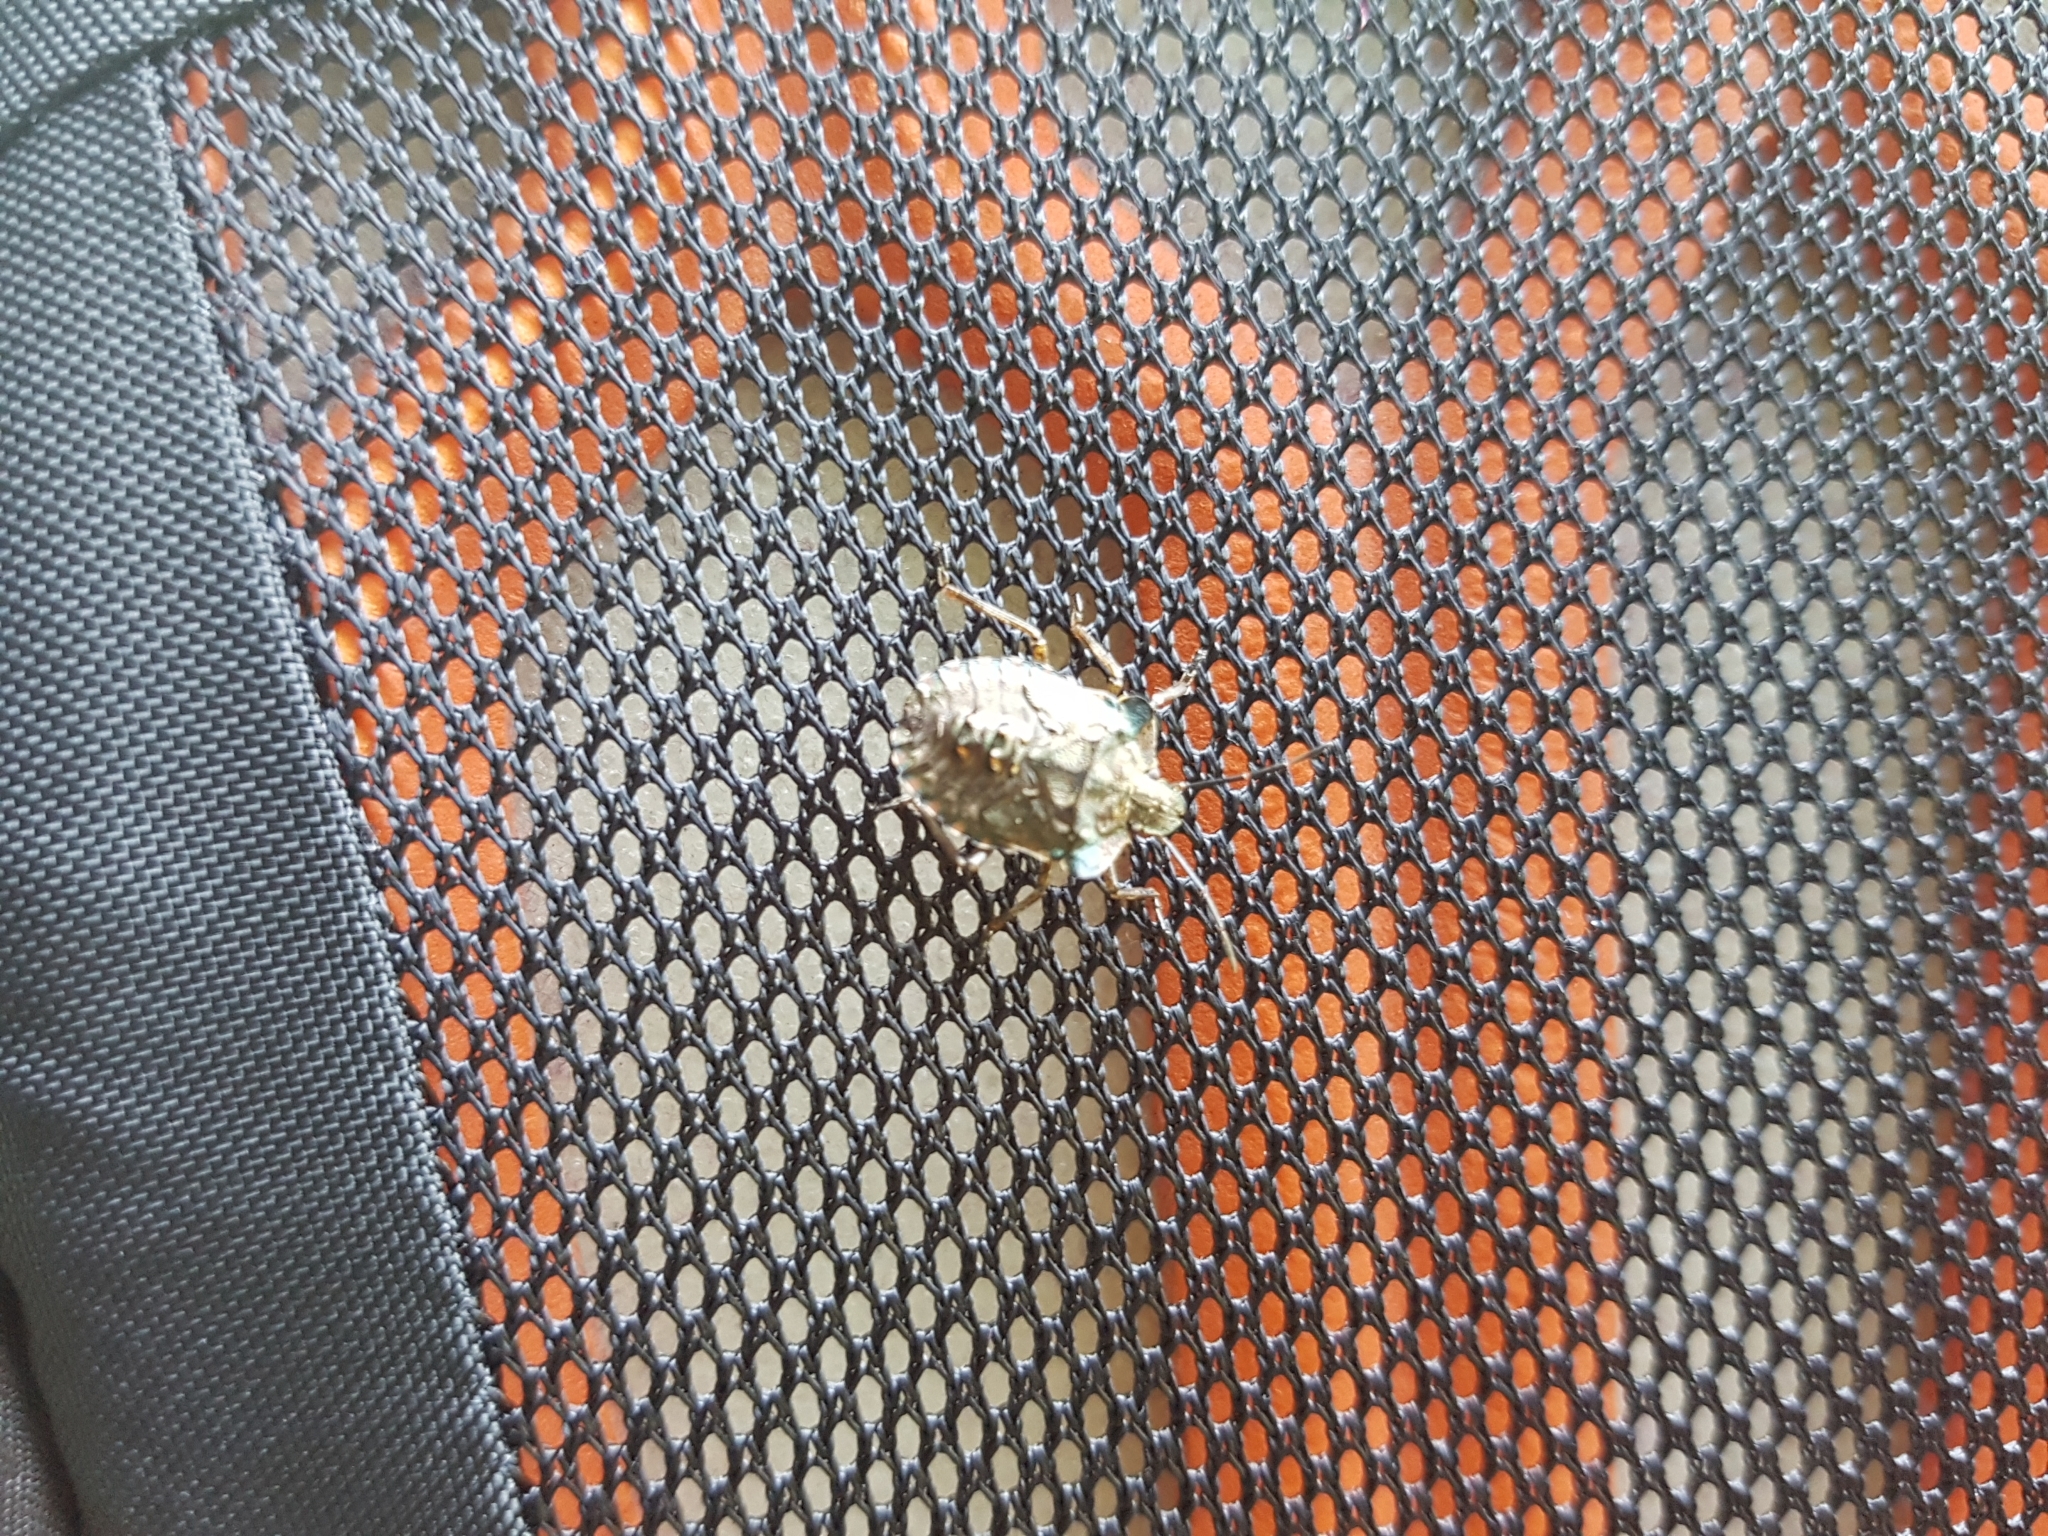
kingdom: Animalia
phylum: Arthropoda
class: Insecta
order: Hemiptera
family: Pentatomidae
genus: Pentatoma
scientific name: Pentatoma rufipes
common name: Forest bug
